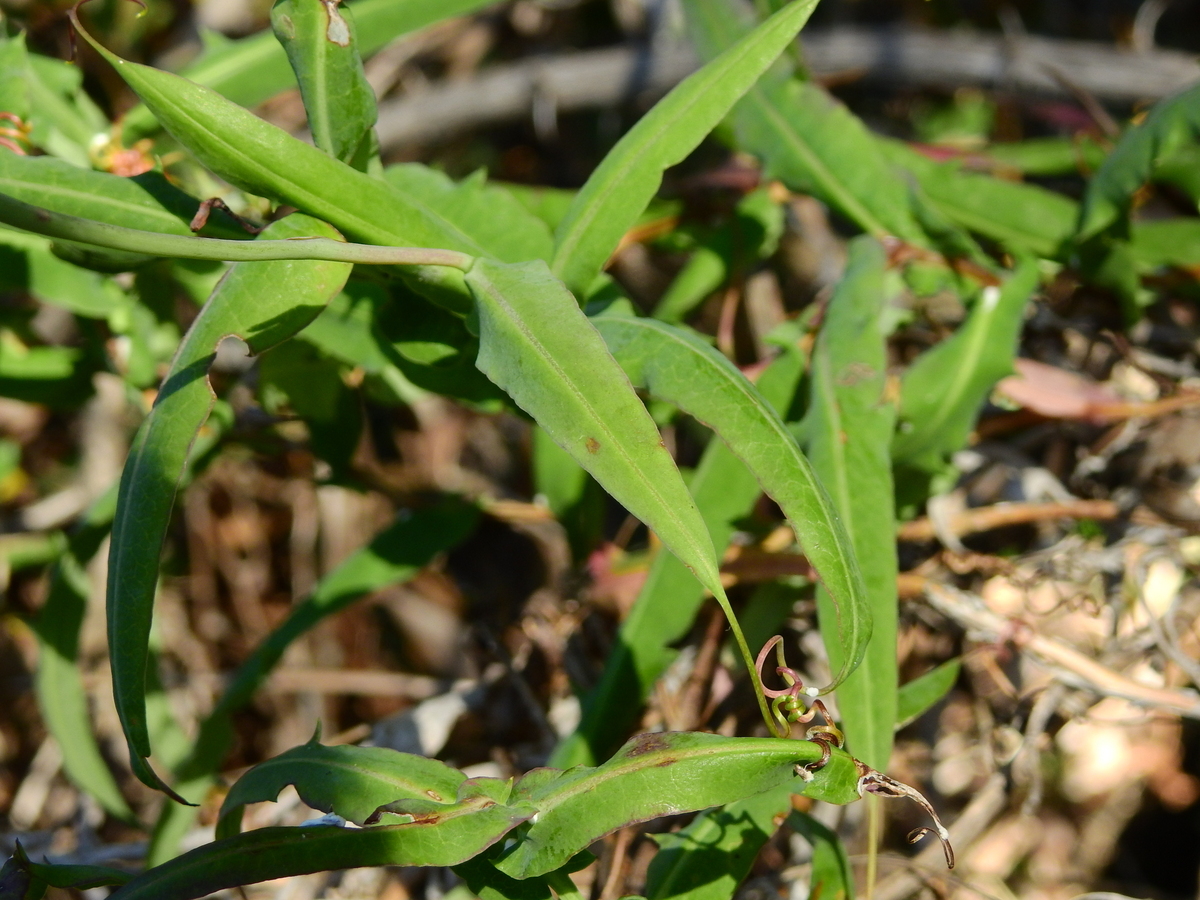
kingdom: Plantae
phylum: Tracheophyta
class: Magnoliopsida
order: Asterales
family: Asteraceae
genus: Mutisia
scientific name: Mutisia decurrens
